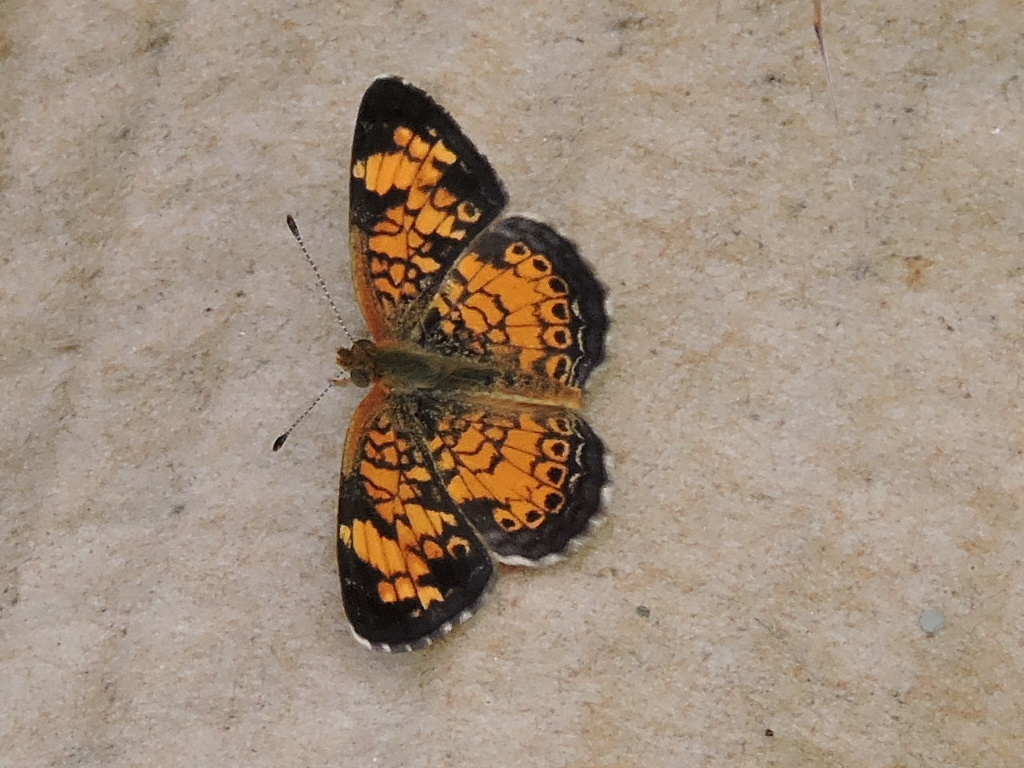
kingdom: Animalia
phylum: Arthropoda
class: Insecta
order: Lepidoptera
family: Nymphalidae
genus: Phyciodes
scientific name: Phyciodes tharos
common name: Pearl crescent
